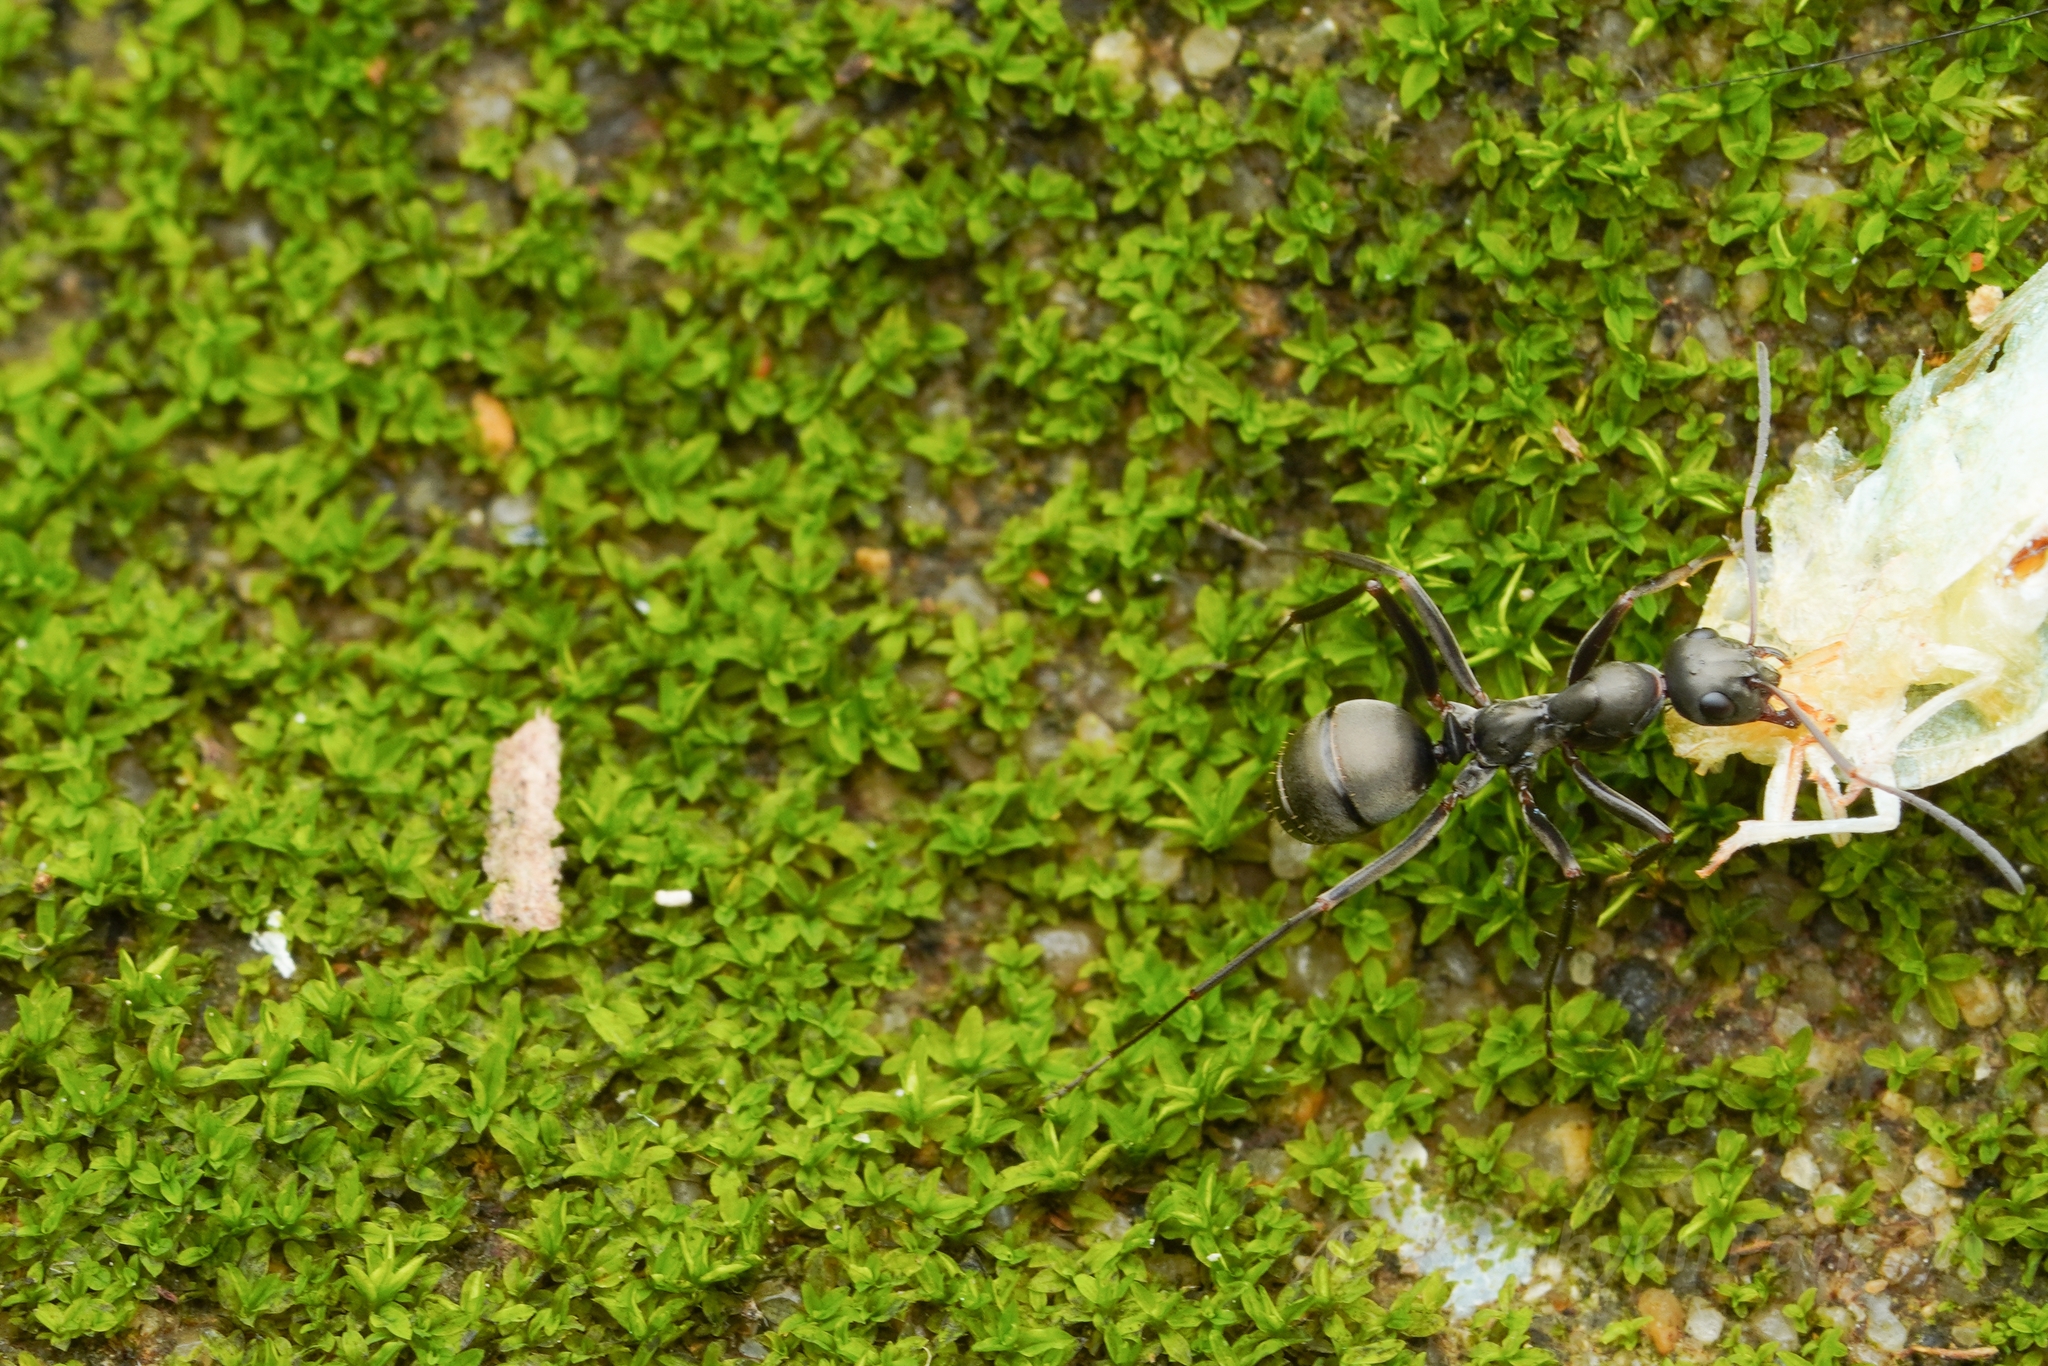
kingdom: Animalia
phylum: Arthropoda
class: Insecta
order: Hymenoptera
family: Formicidae
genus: Formica
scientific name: Formica hayashi
